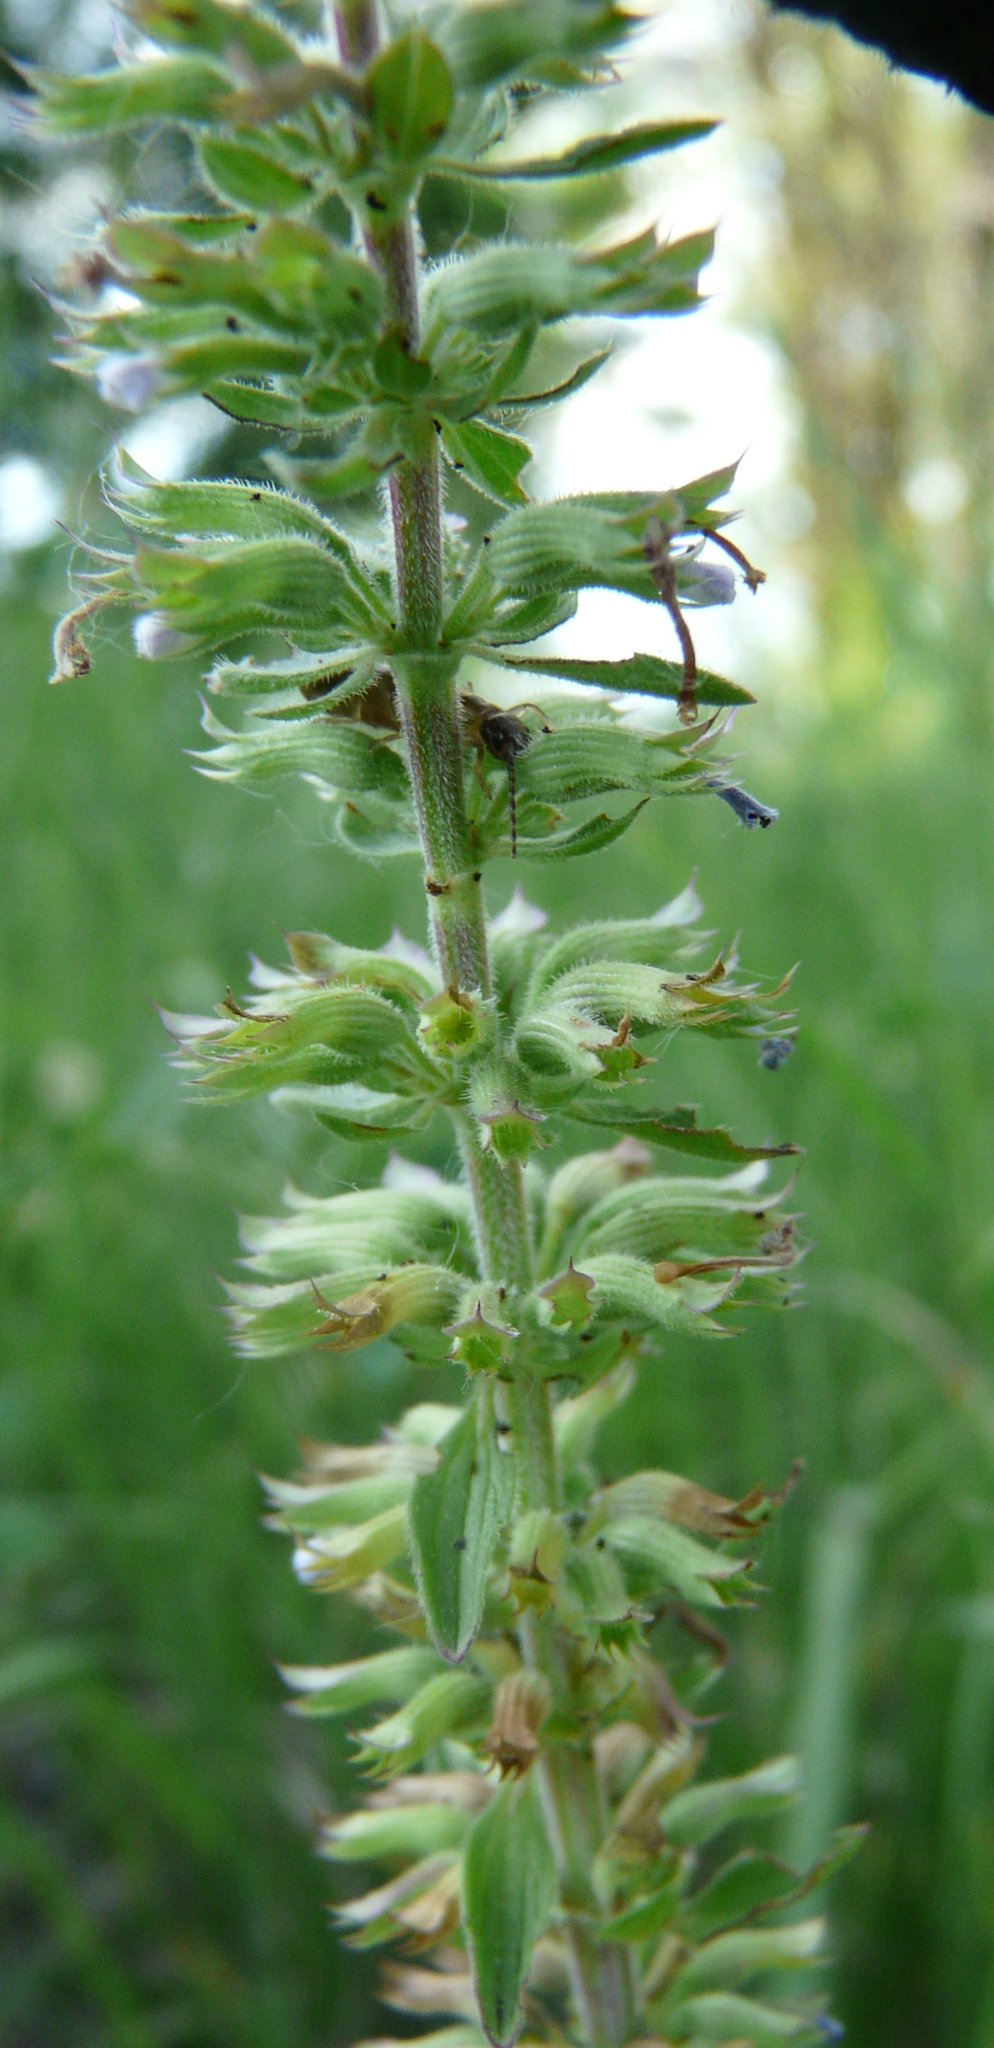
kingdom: Plantae
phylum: Tracheophyta
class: Magnoliopsida
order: Lamiales
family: Lamiaceae
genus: Dracocephalum
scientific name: Dracocephalum thymiflorum
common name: Thymeleaf dragonhead
